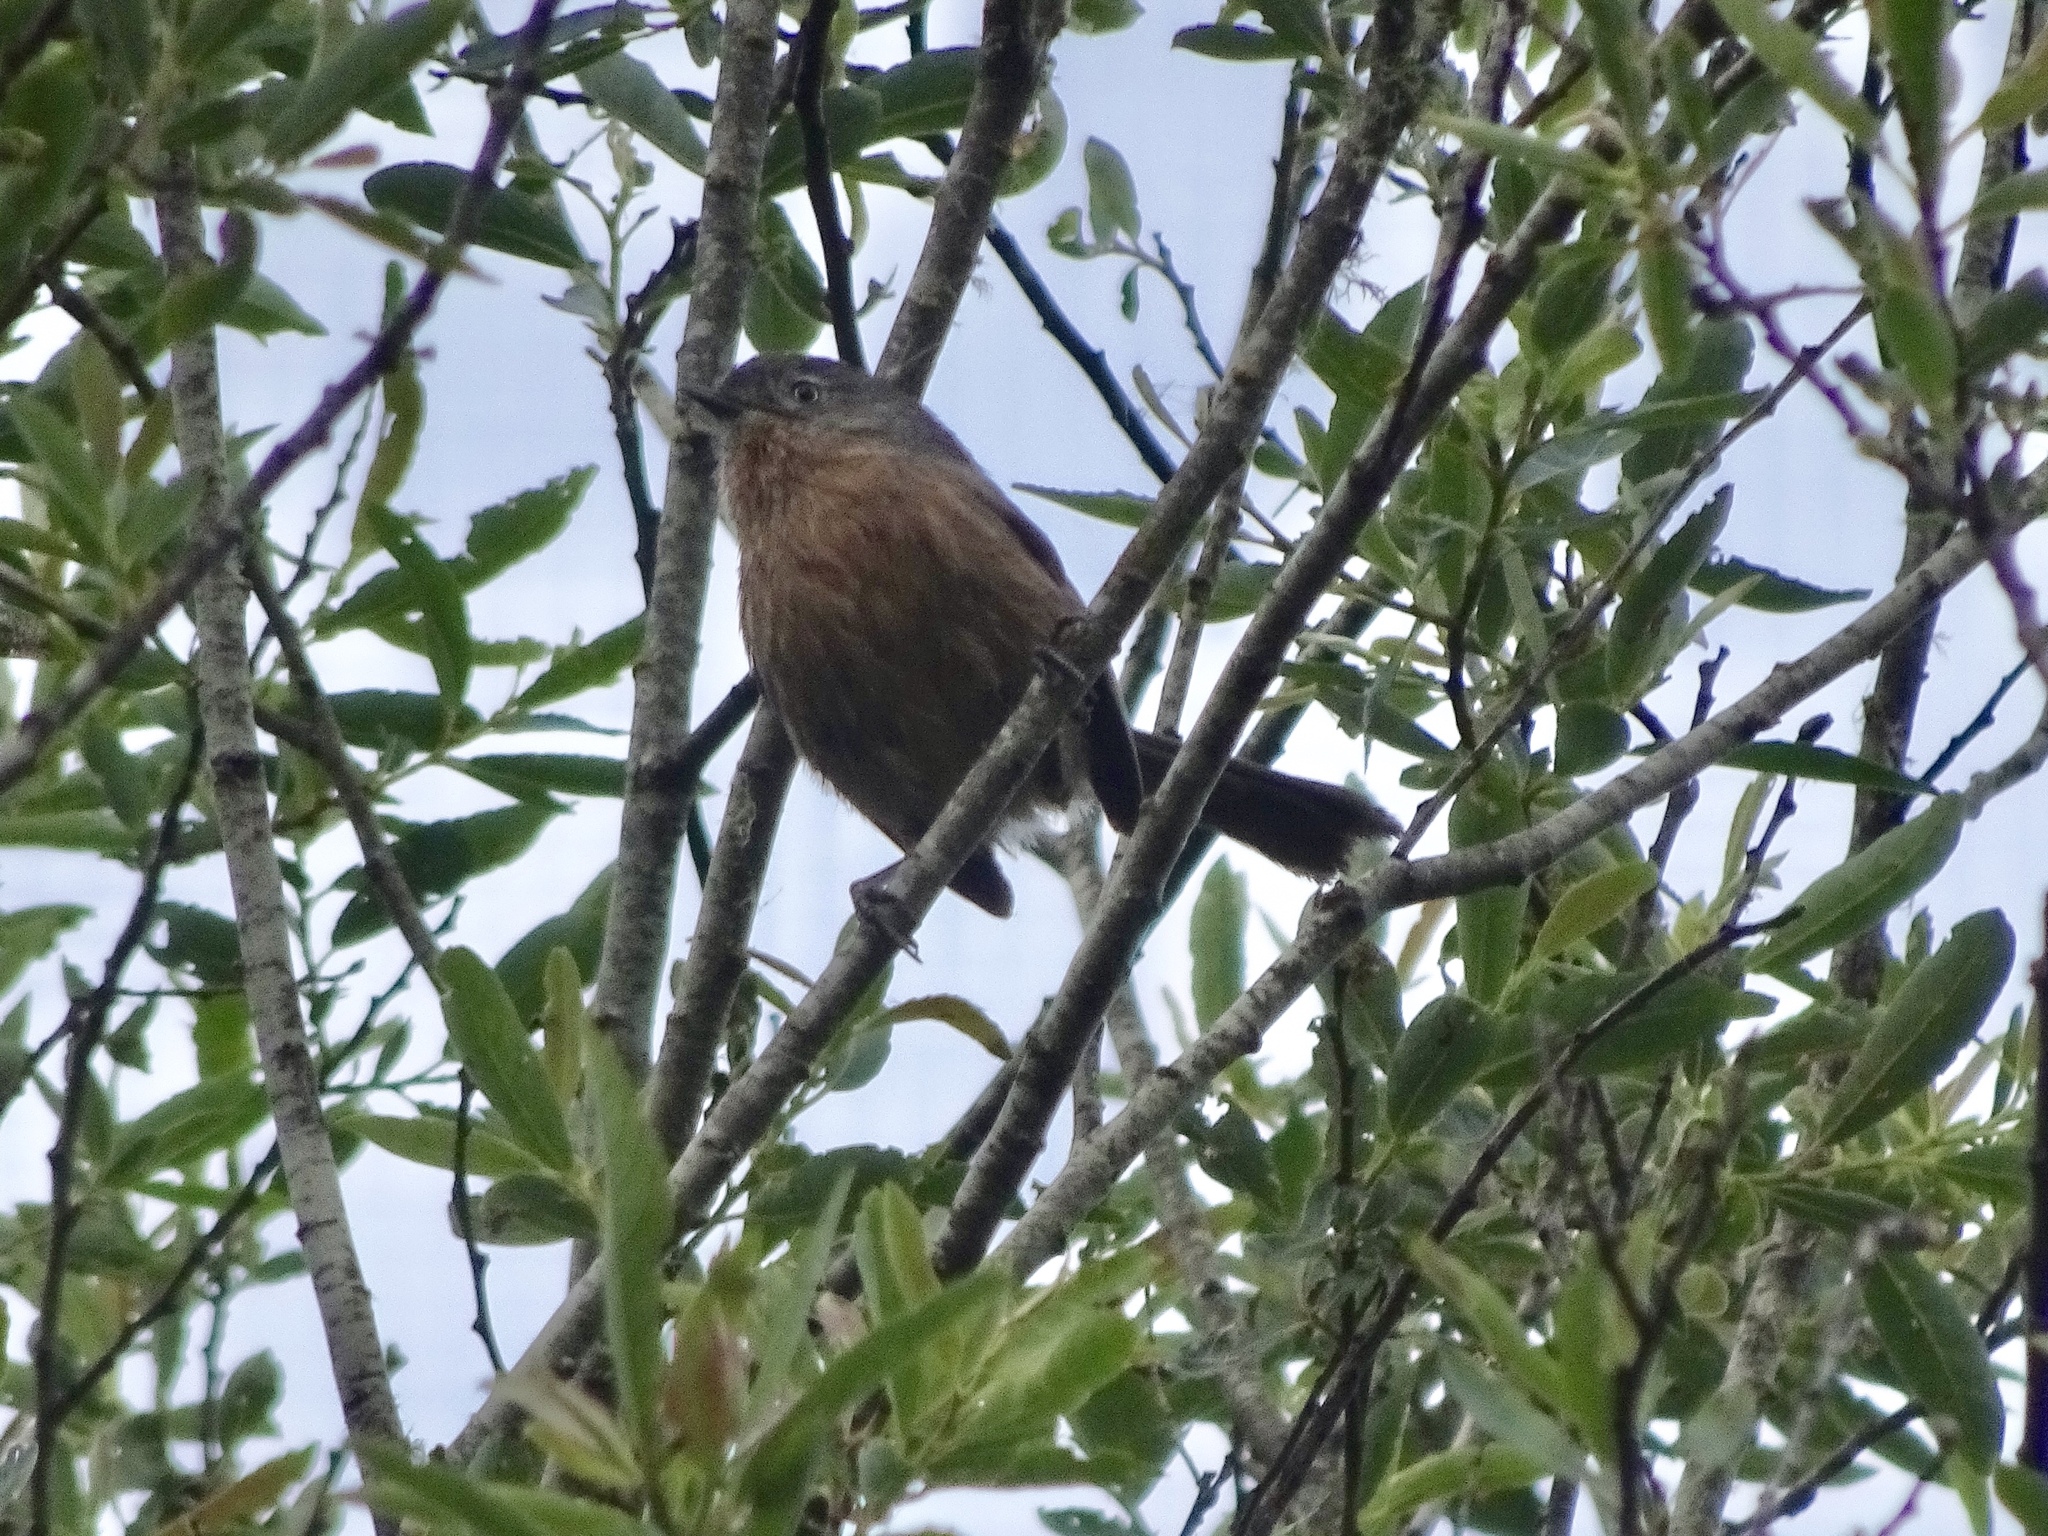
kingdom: Animalia
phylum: Chordata
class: Aves
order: Passeriformes
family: Sylviidae
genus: Chamaea
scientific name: Chamaea fasciata
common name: Wrentit
